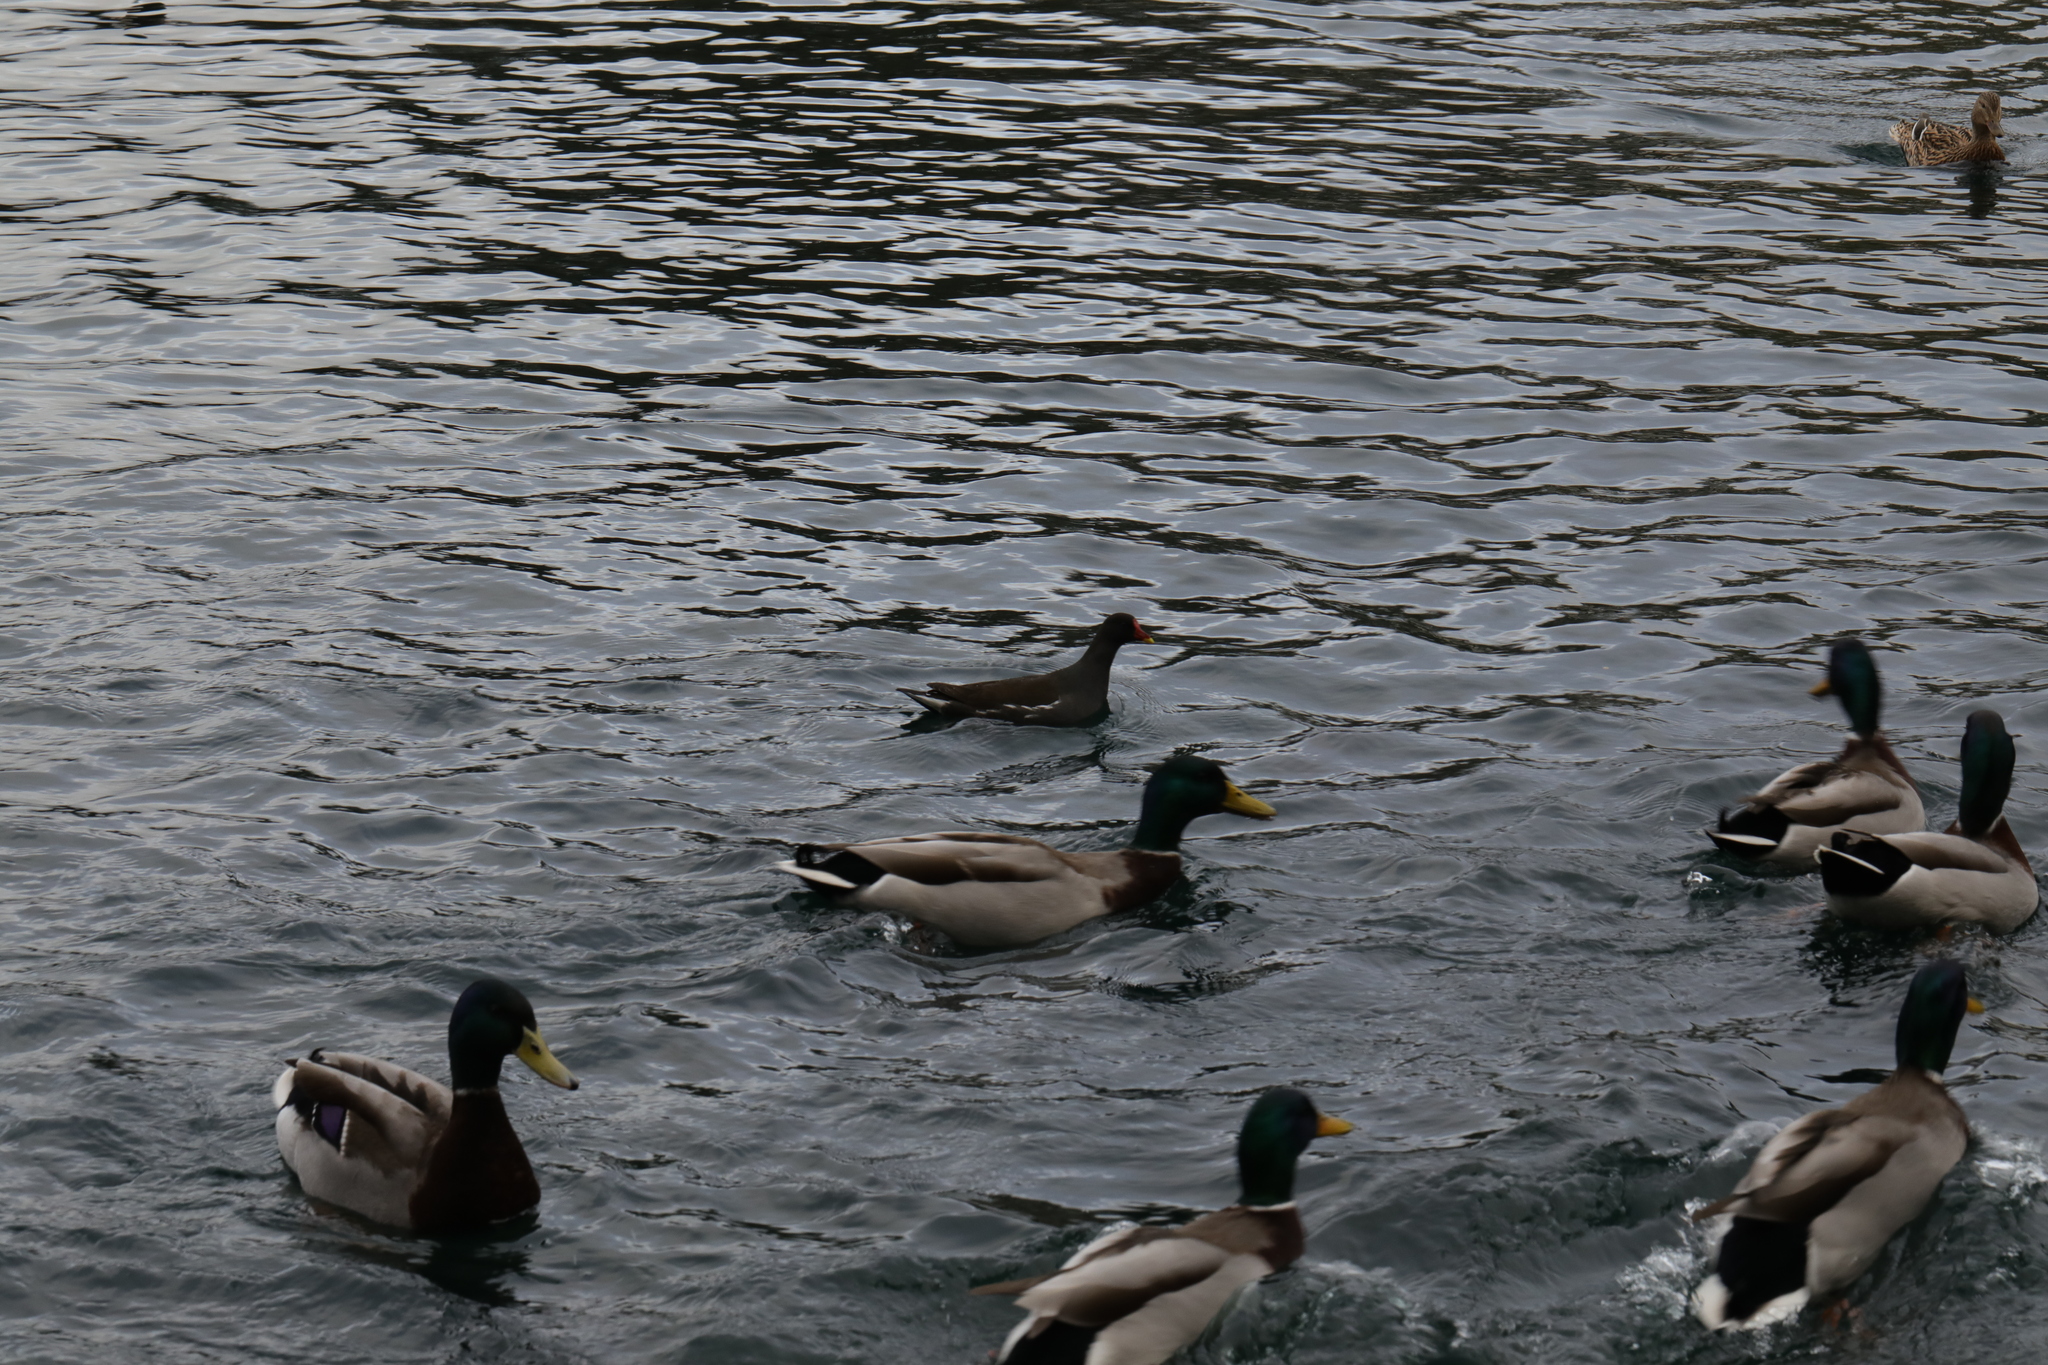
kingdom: Animalia
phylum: Chordata
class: Aves
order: Gruiformes
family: Rallidae
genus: Gallinula
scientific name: Gallinula chloropus
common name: Common moorhen
